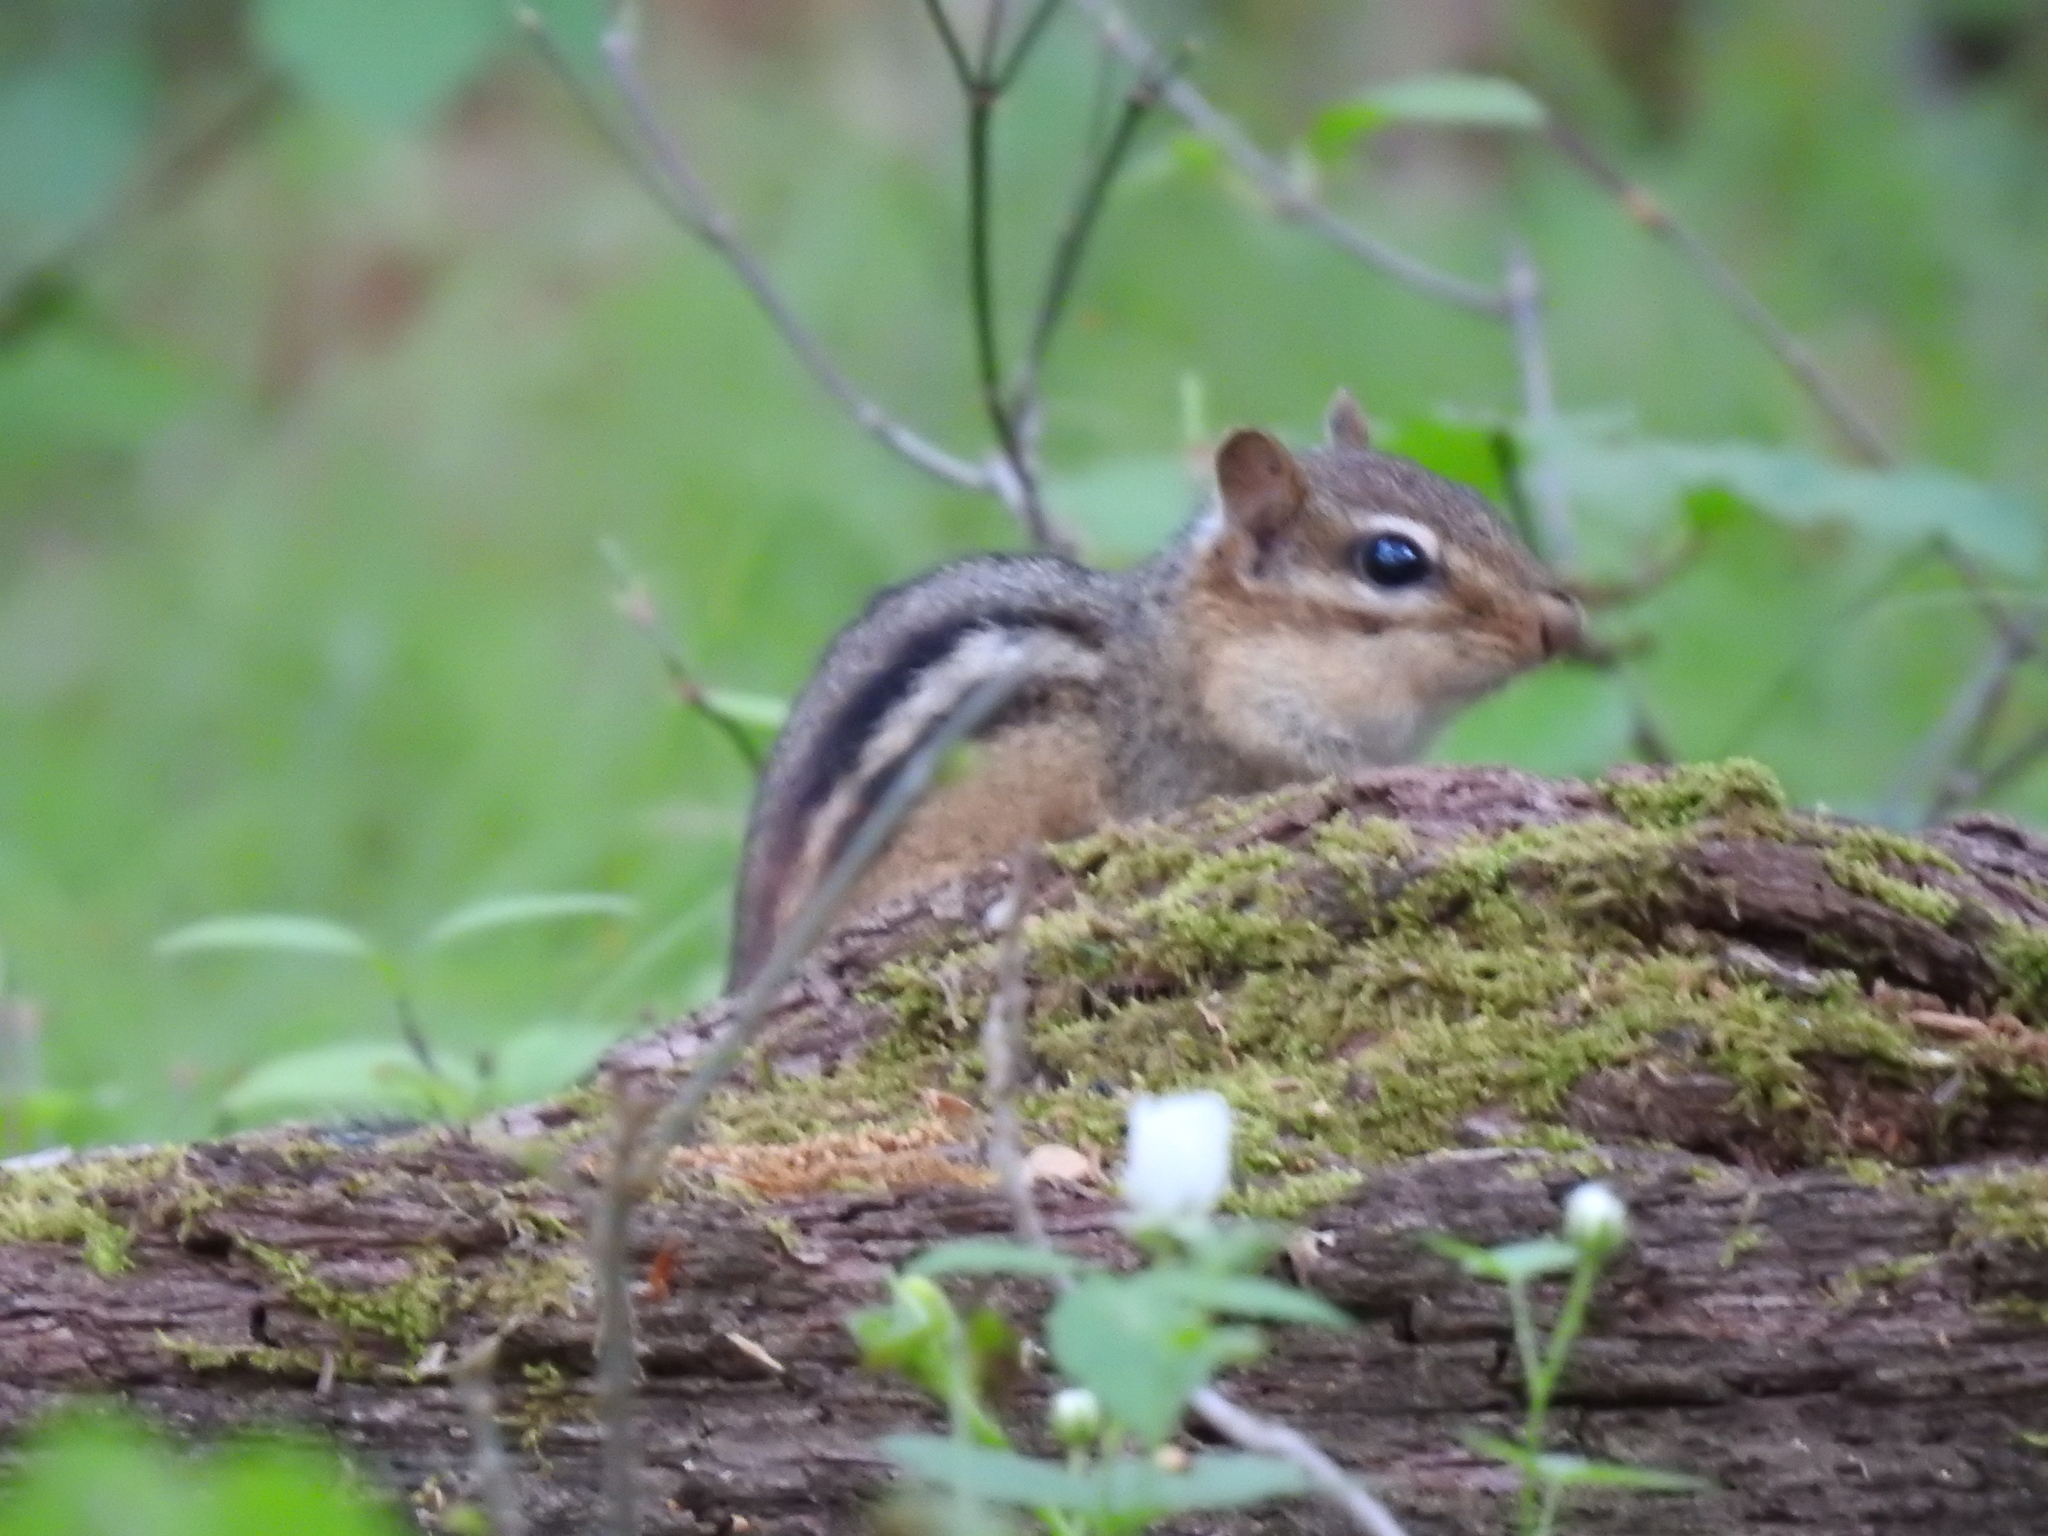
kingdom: Animalia
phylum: Chordata
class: Mammalia
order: Rodentia
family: Sciuridae
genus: Tamias
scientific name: Tamias striatus
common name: Eastern chipmunk
